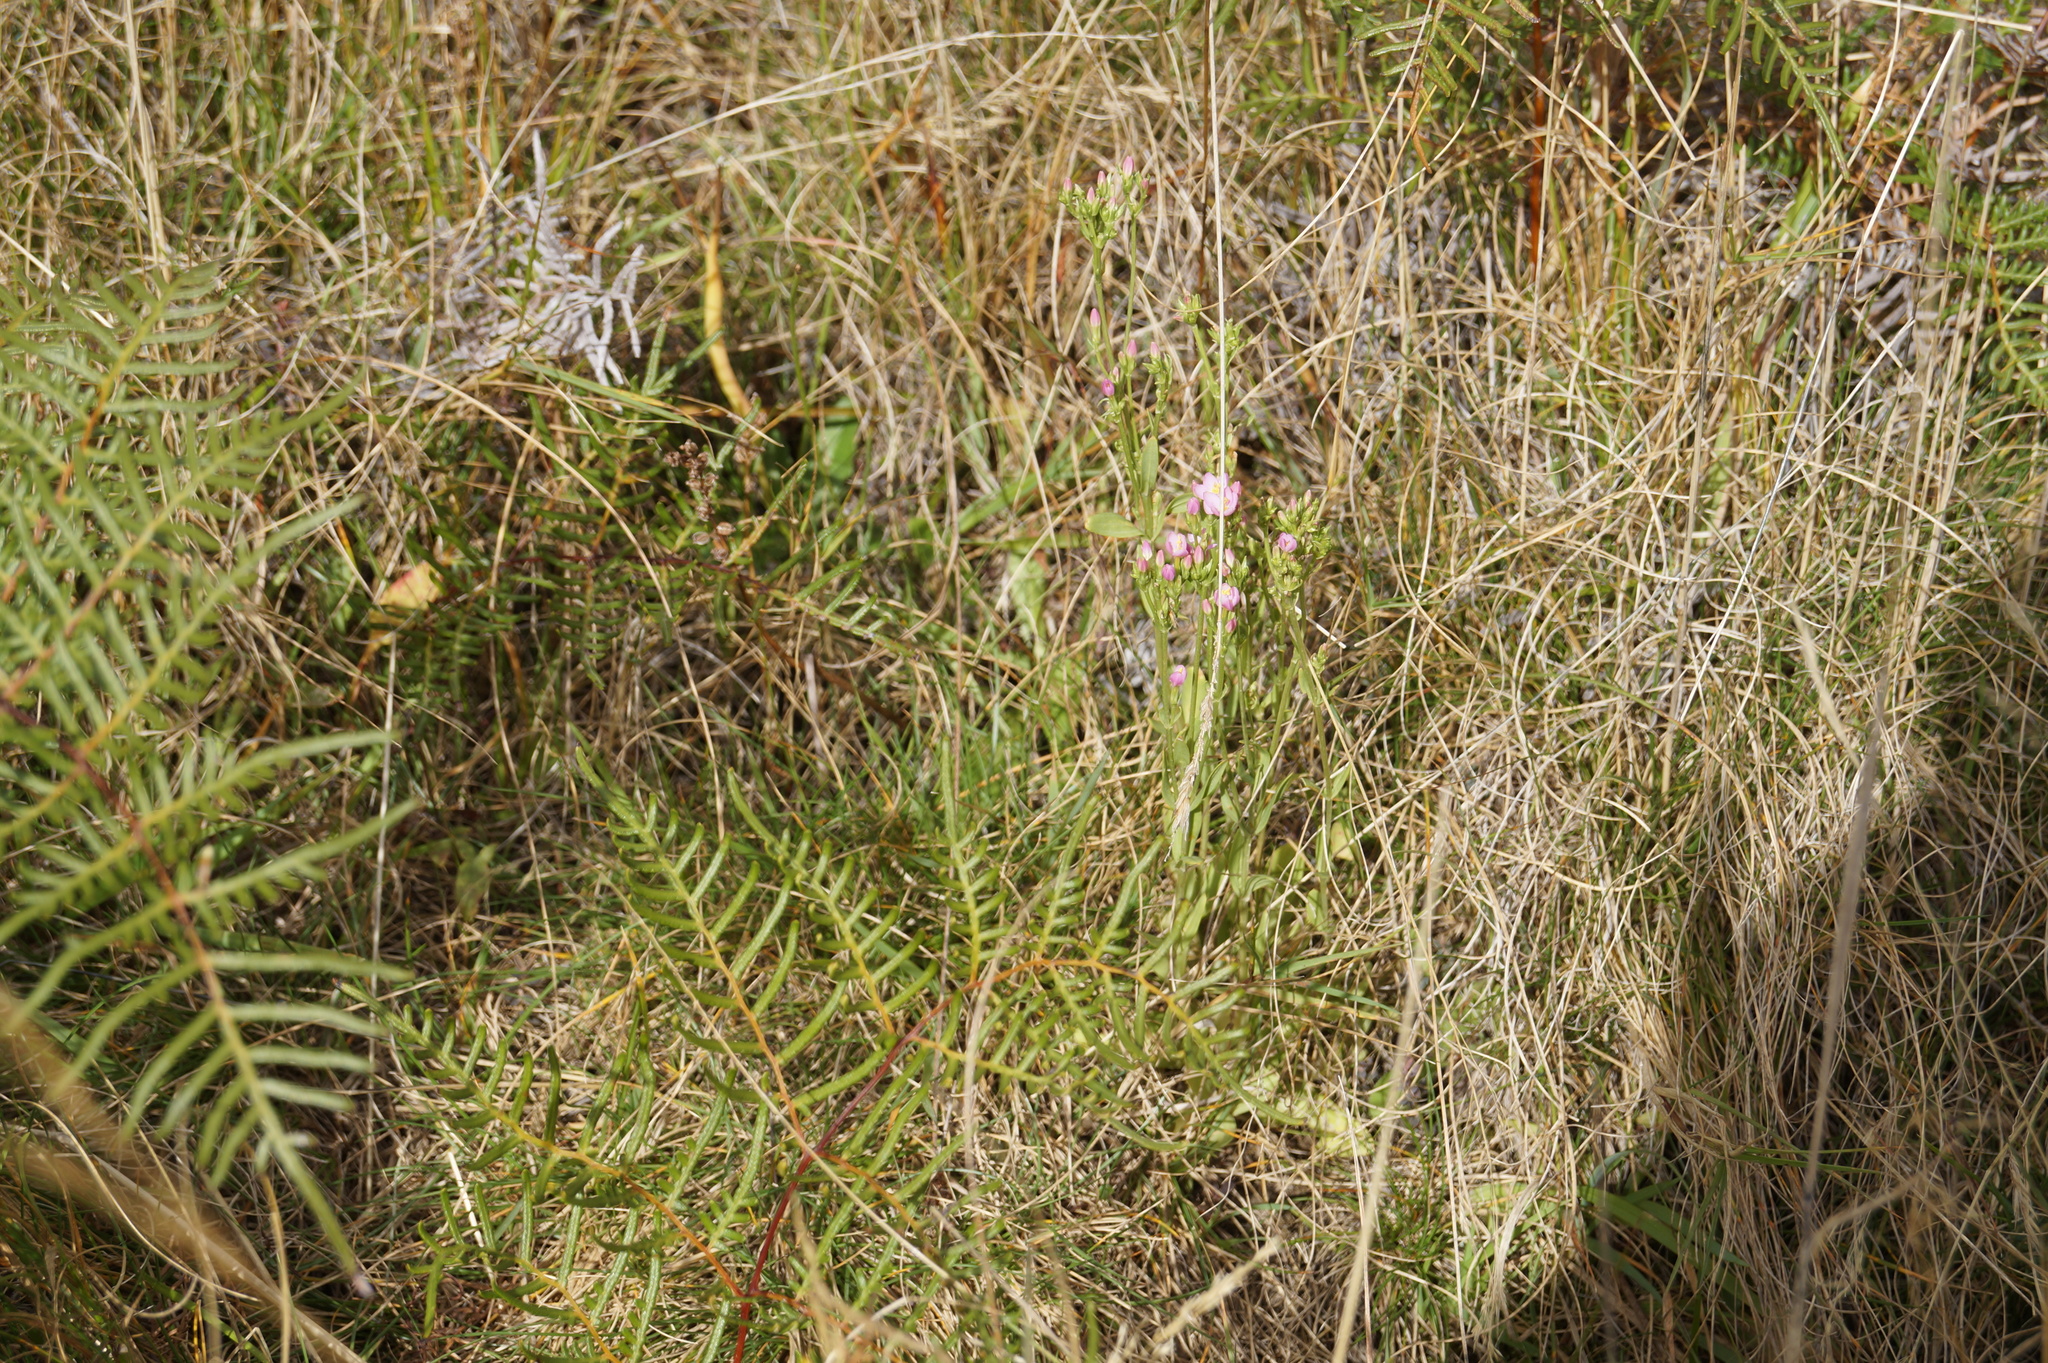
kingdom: Plantae
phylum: Tracheophyta
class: Polypodiopsida
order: Polypodiales
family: Dennstaedtiaceae
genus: Pteridium
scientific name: Pteridium esculentum
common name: Bracken fern
